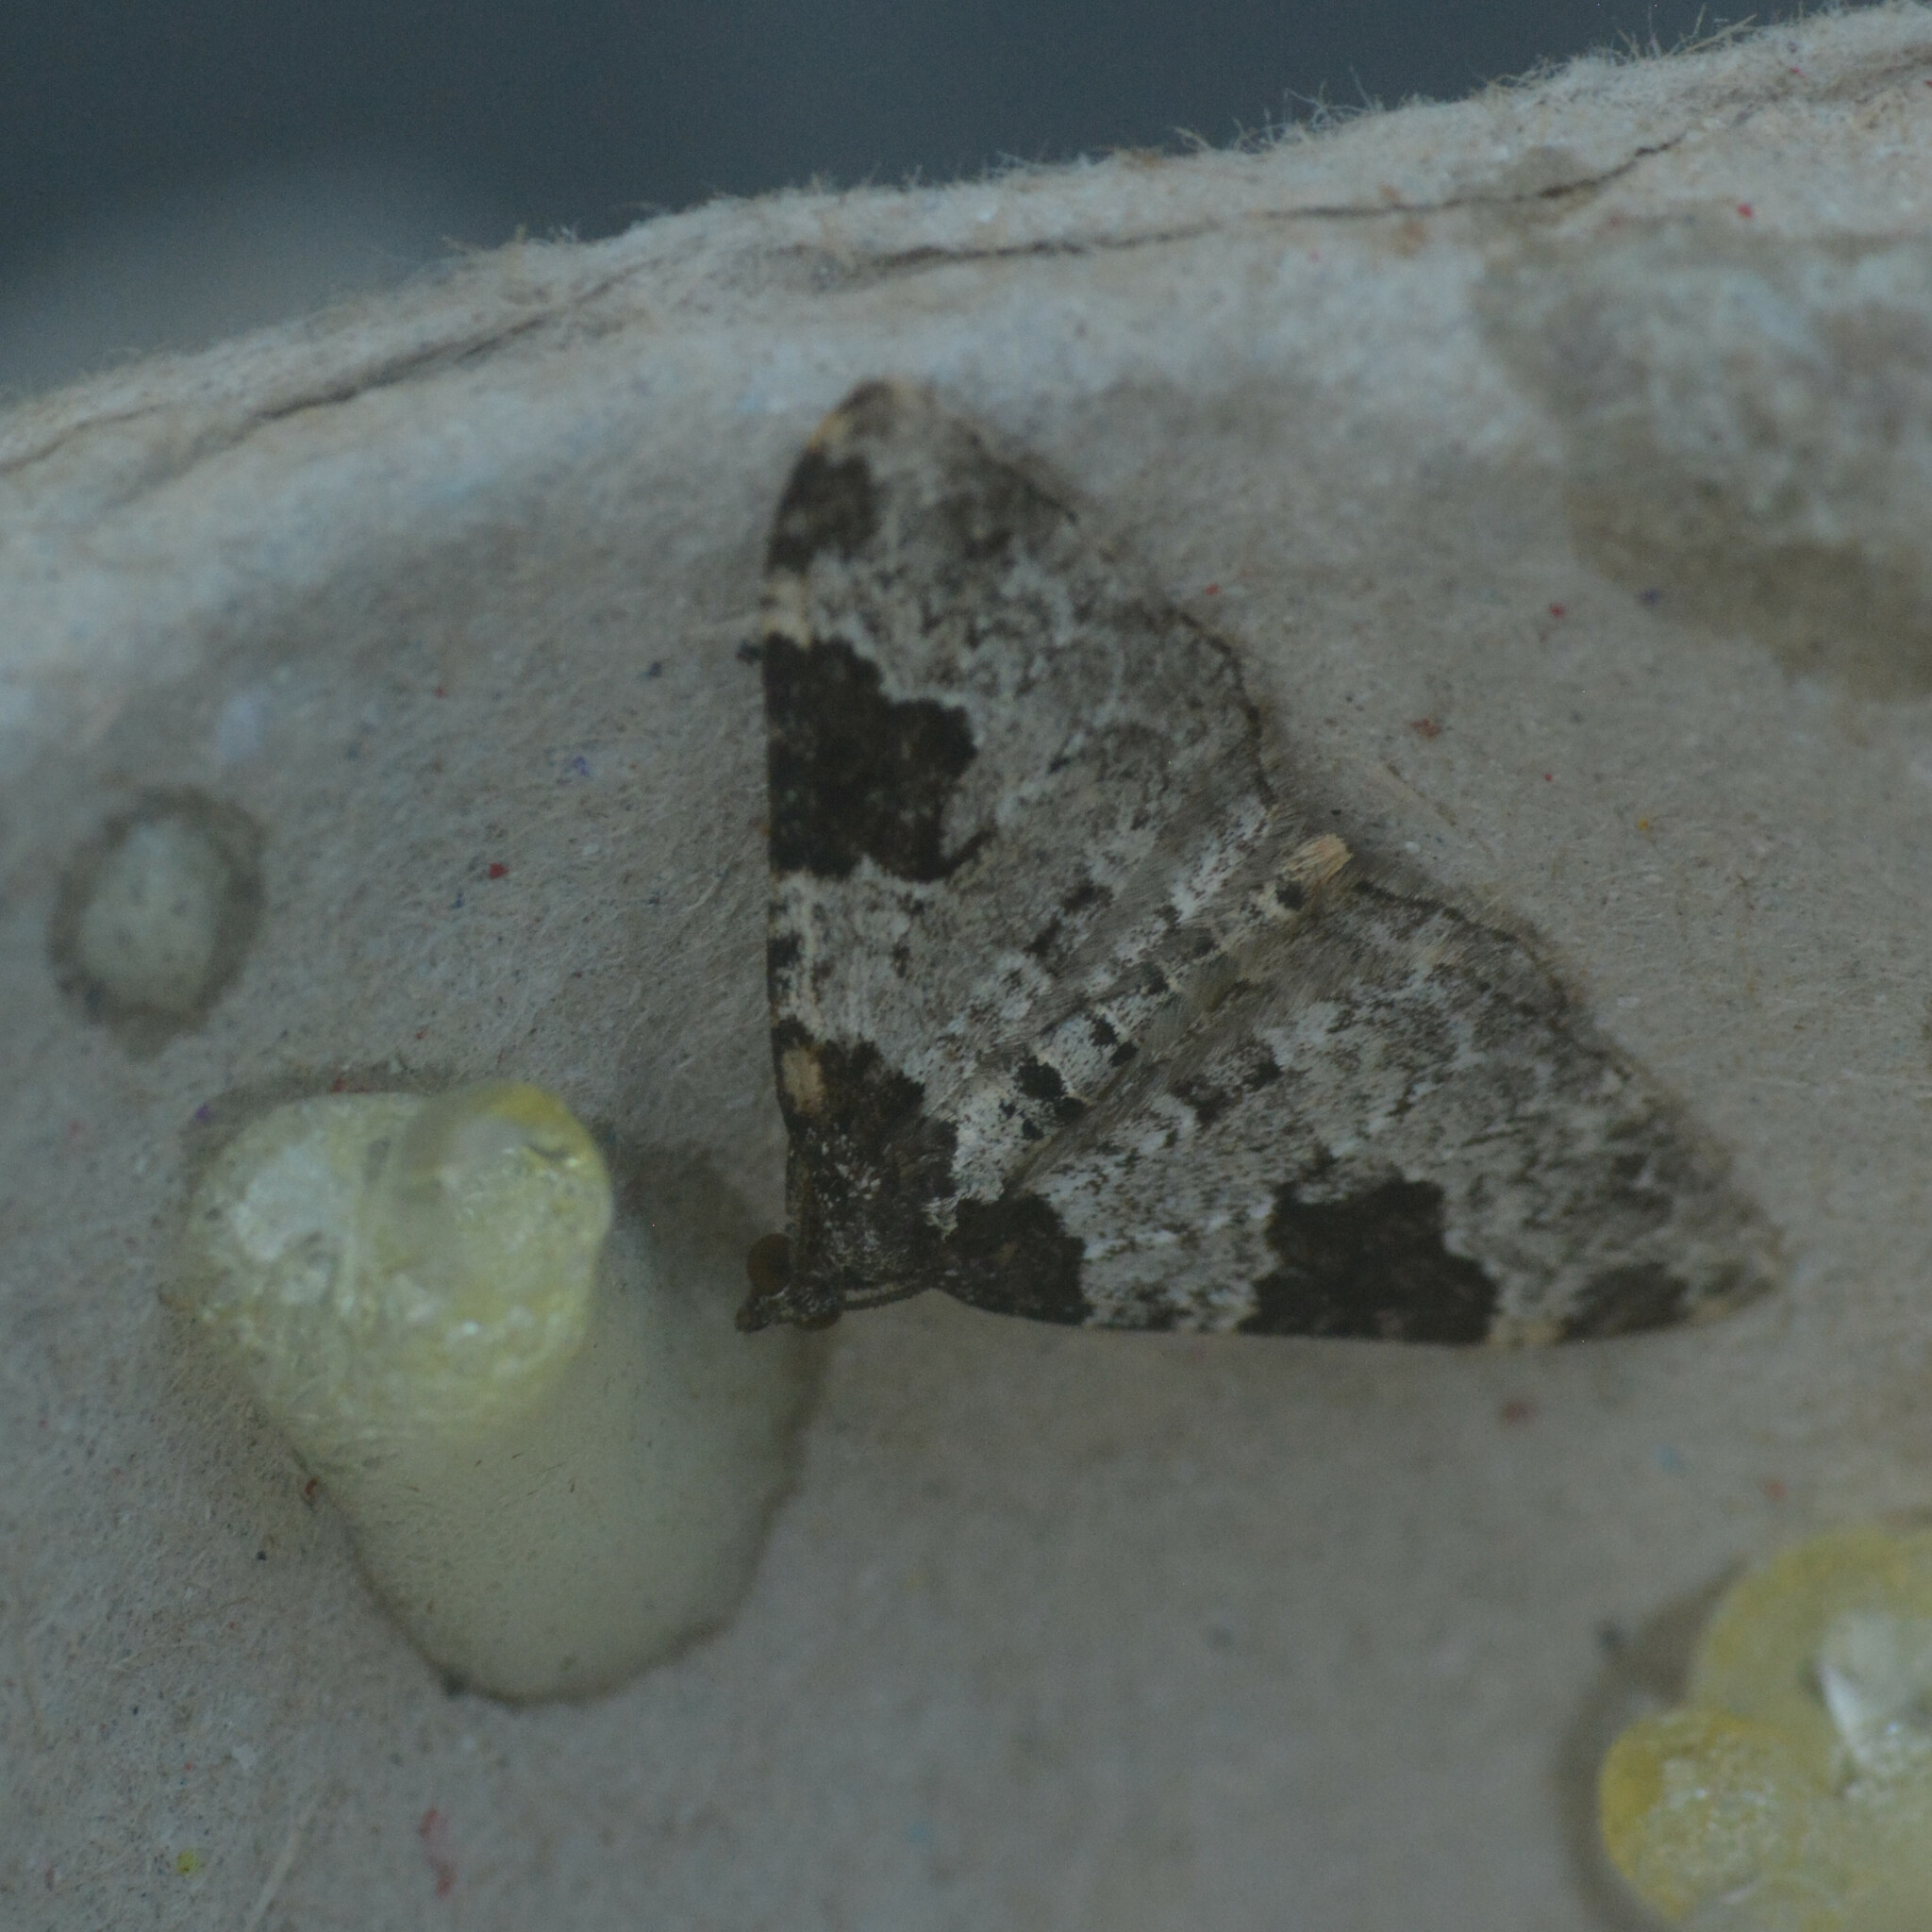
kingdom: Animalia
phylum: Arthropoda
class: Insecta
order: Lepidoptera
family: Geometridae
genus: Xanthorhoe
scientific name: Xanthorhoe fluctuata
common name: Garden carpet
